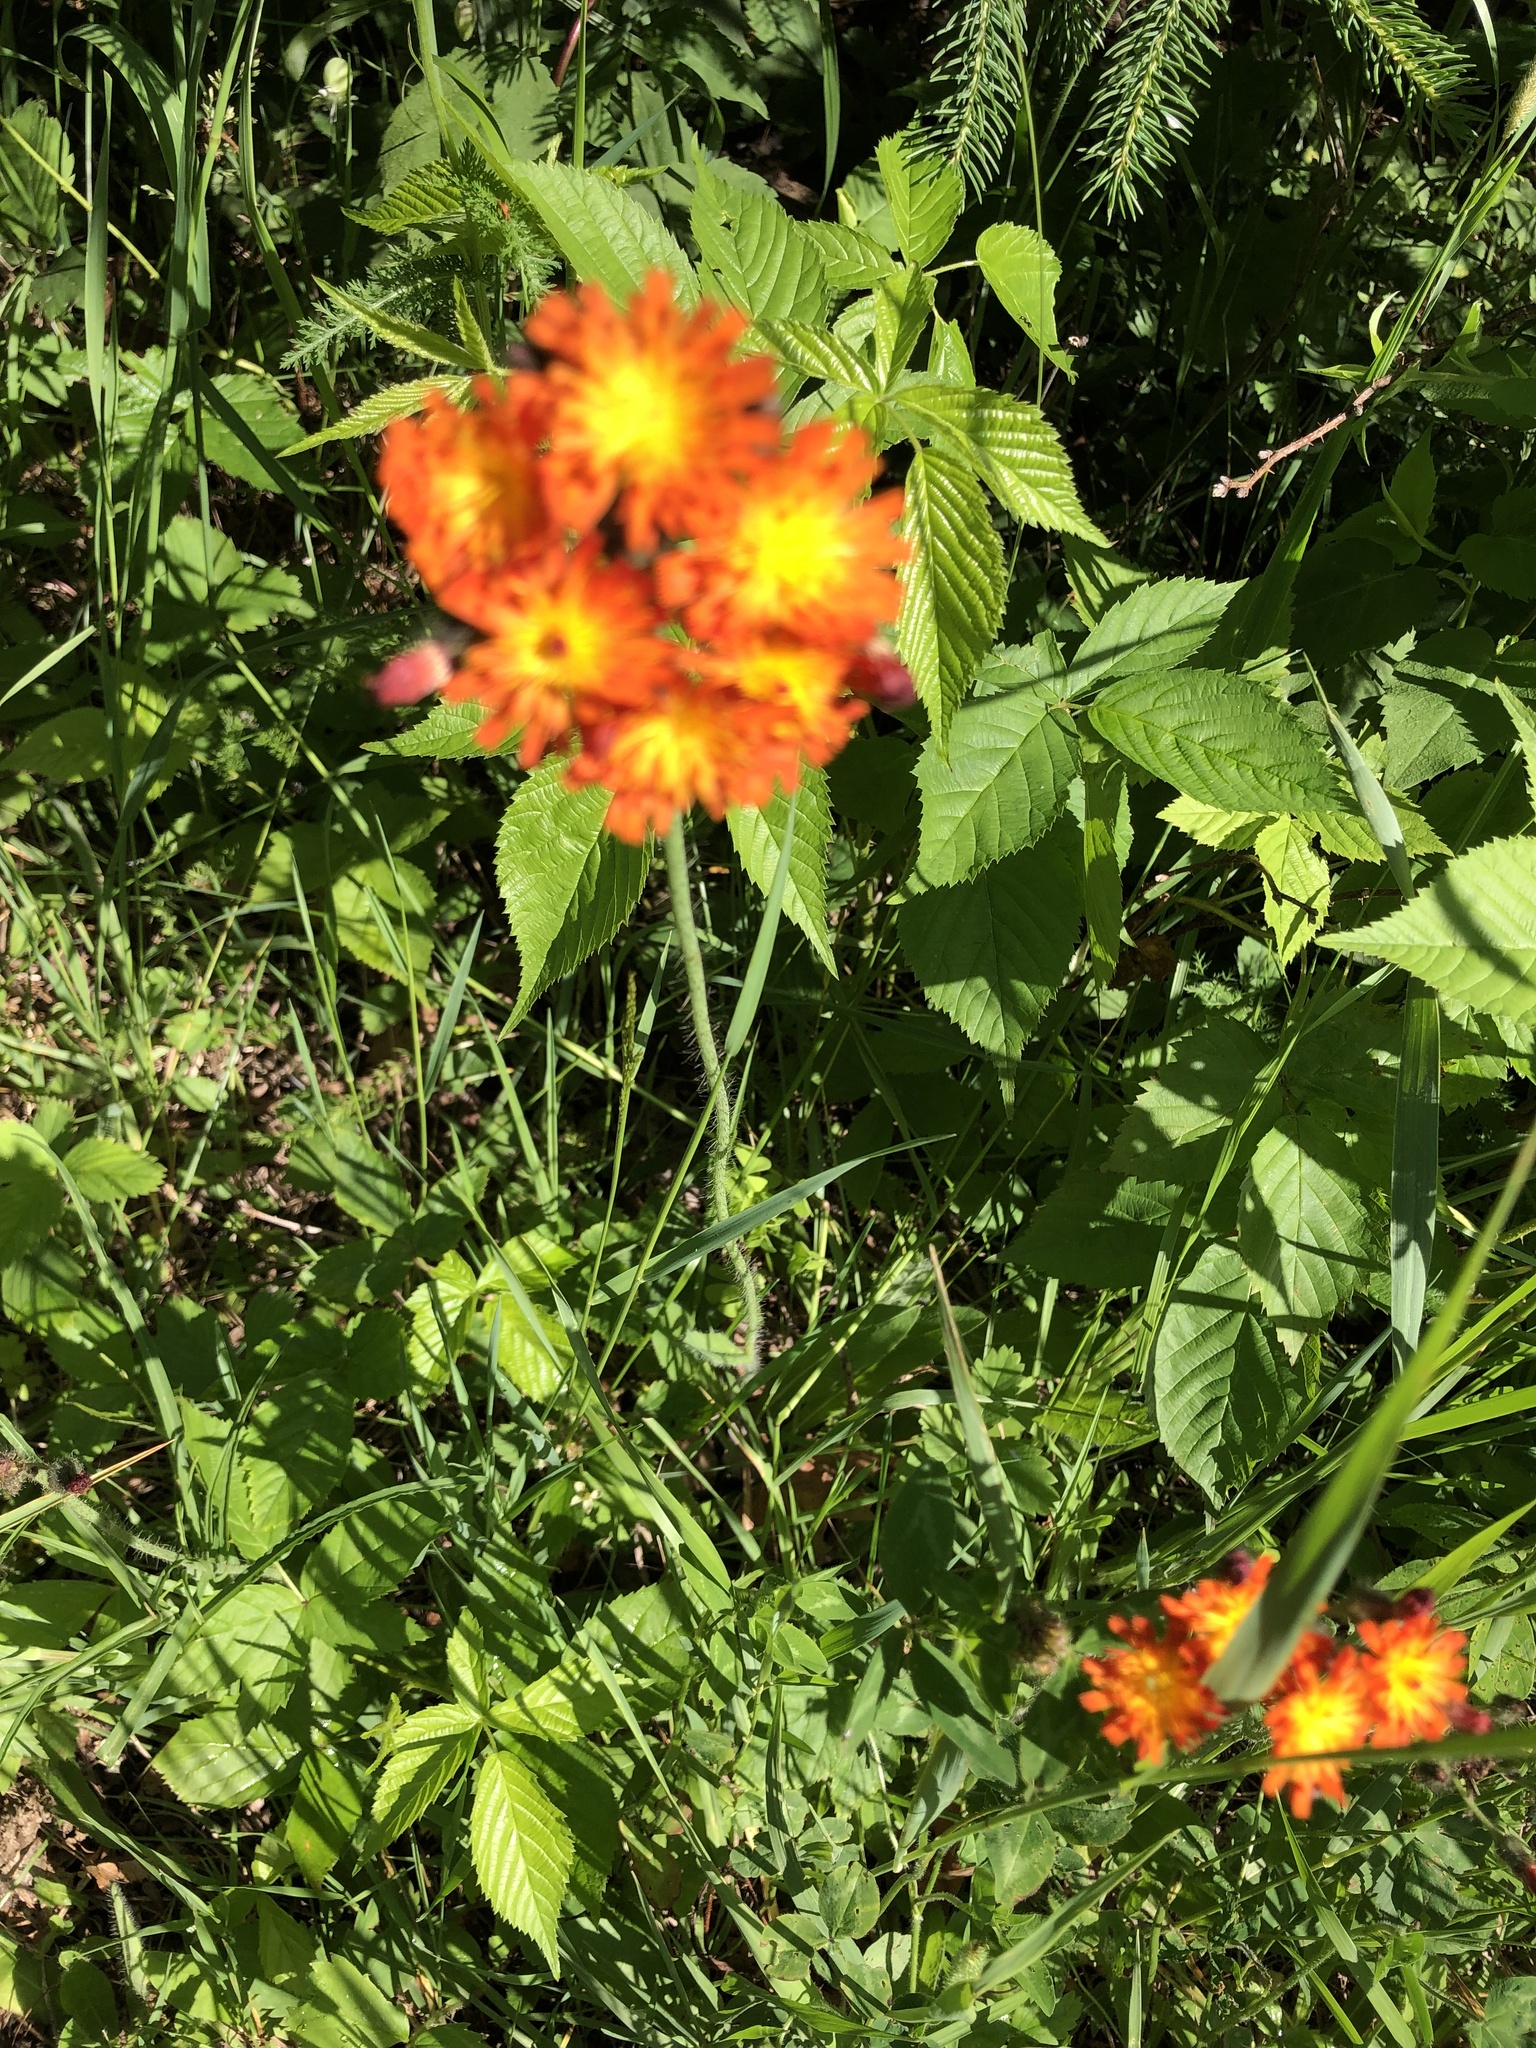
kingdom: Plantae
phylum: Tracheophyta
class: Magnoliopsida
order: Asterales
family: Asteraceae
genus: Pilosella
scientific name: Pilosella aurantiaca
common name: Fox-and-cubs
